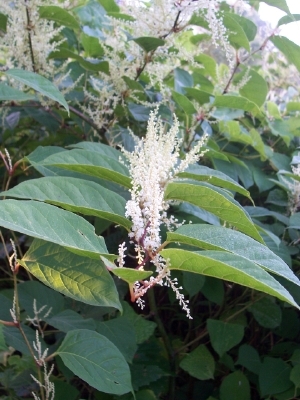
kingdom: Plantae
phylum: Tracheophyta
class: Magnoliopsida
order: Caryophyllales
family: Polygonaceae
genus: Reynoutria
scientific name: Reynoutria japonica
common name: Japanese knotweed
